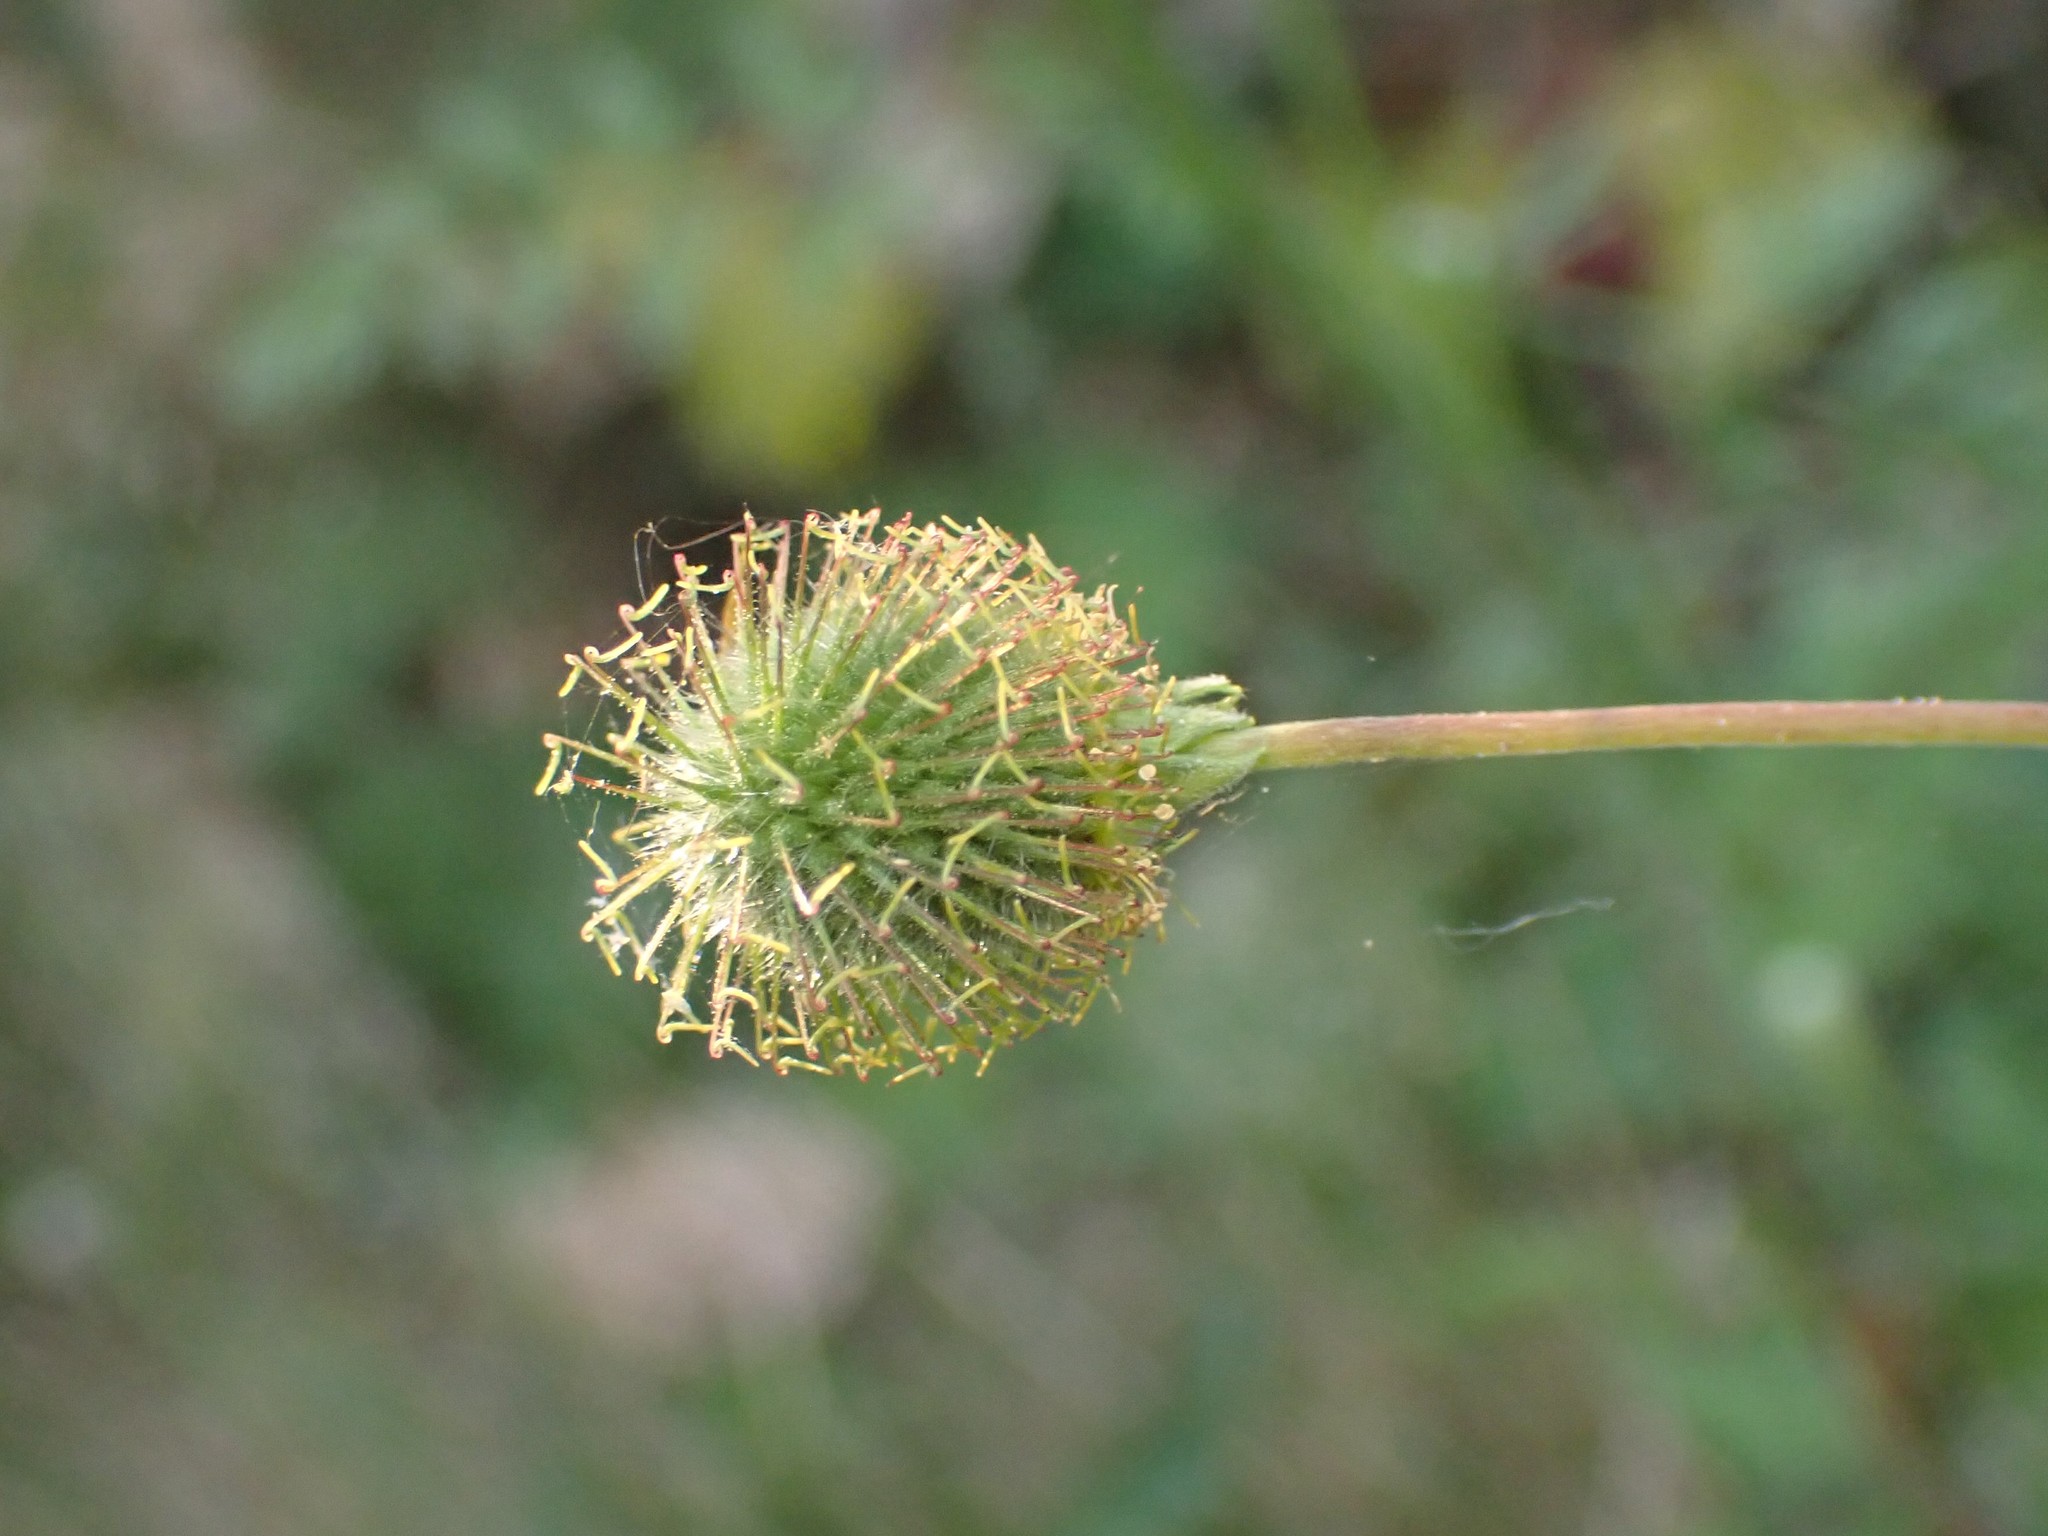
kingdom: Plantae
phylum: Tracheophyta
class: Magnoliopsida
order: Rosales
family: Rosaceae
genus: Geum
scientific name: Geum macrophyllum
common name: Large-leaved avens
